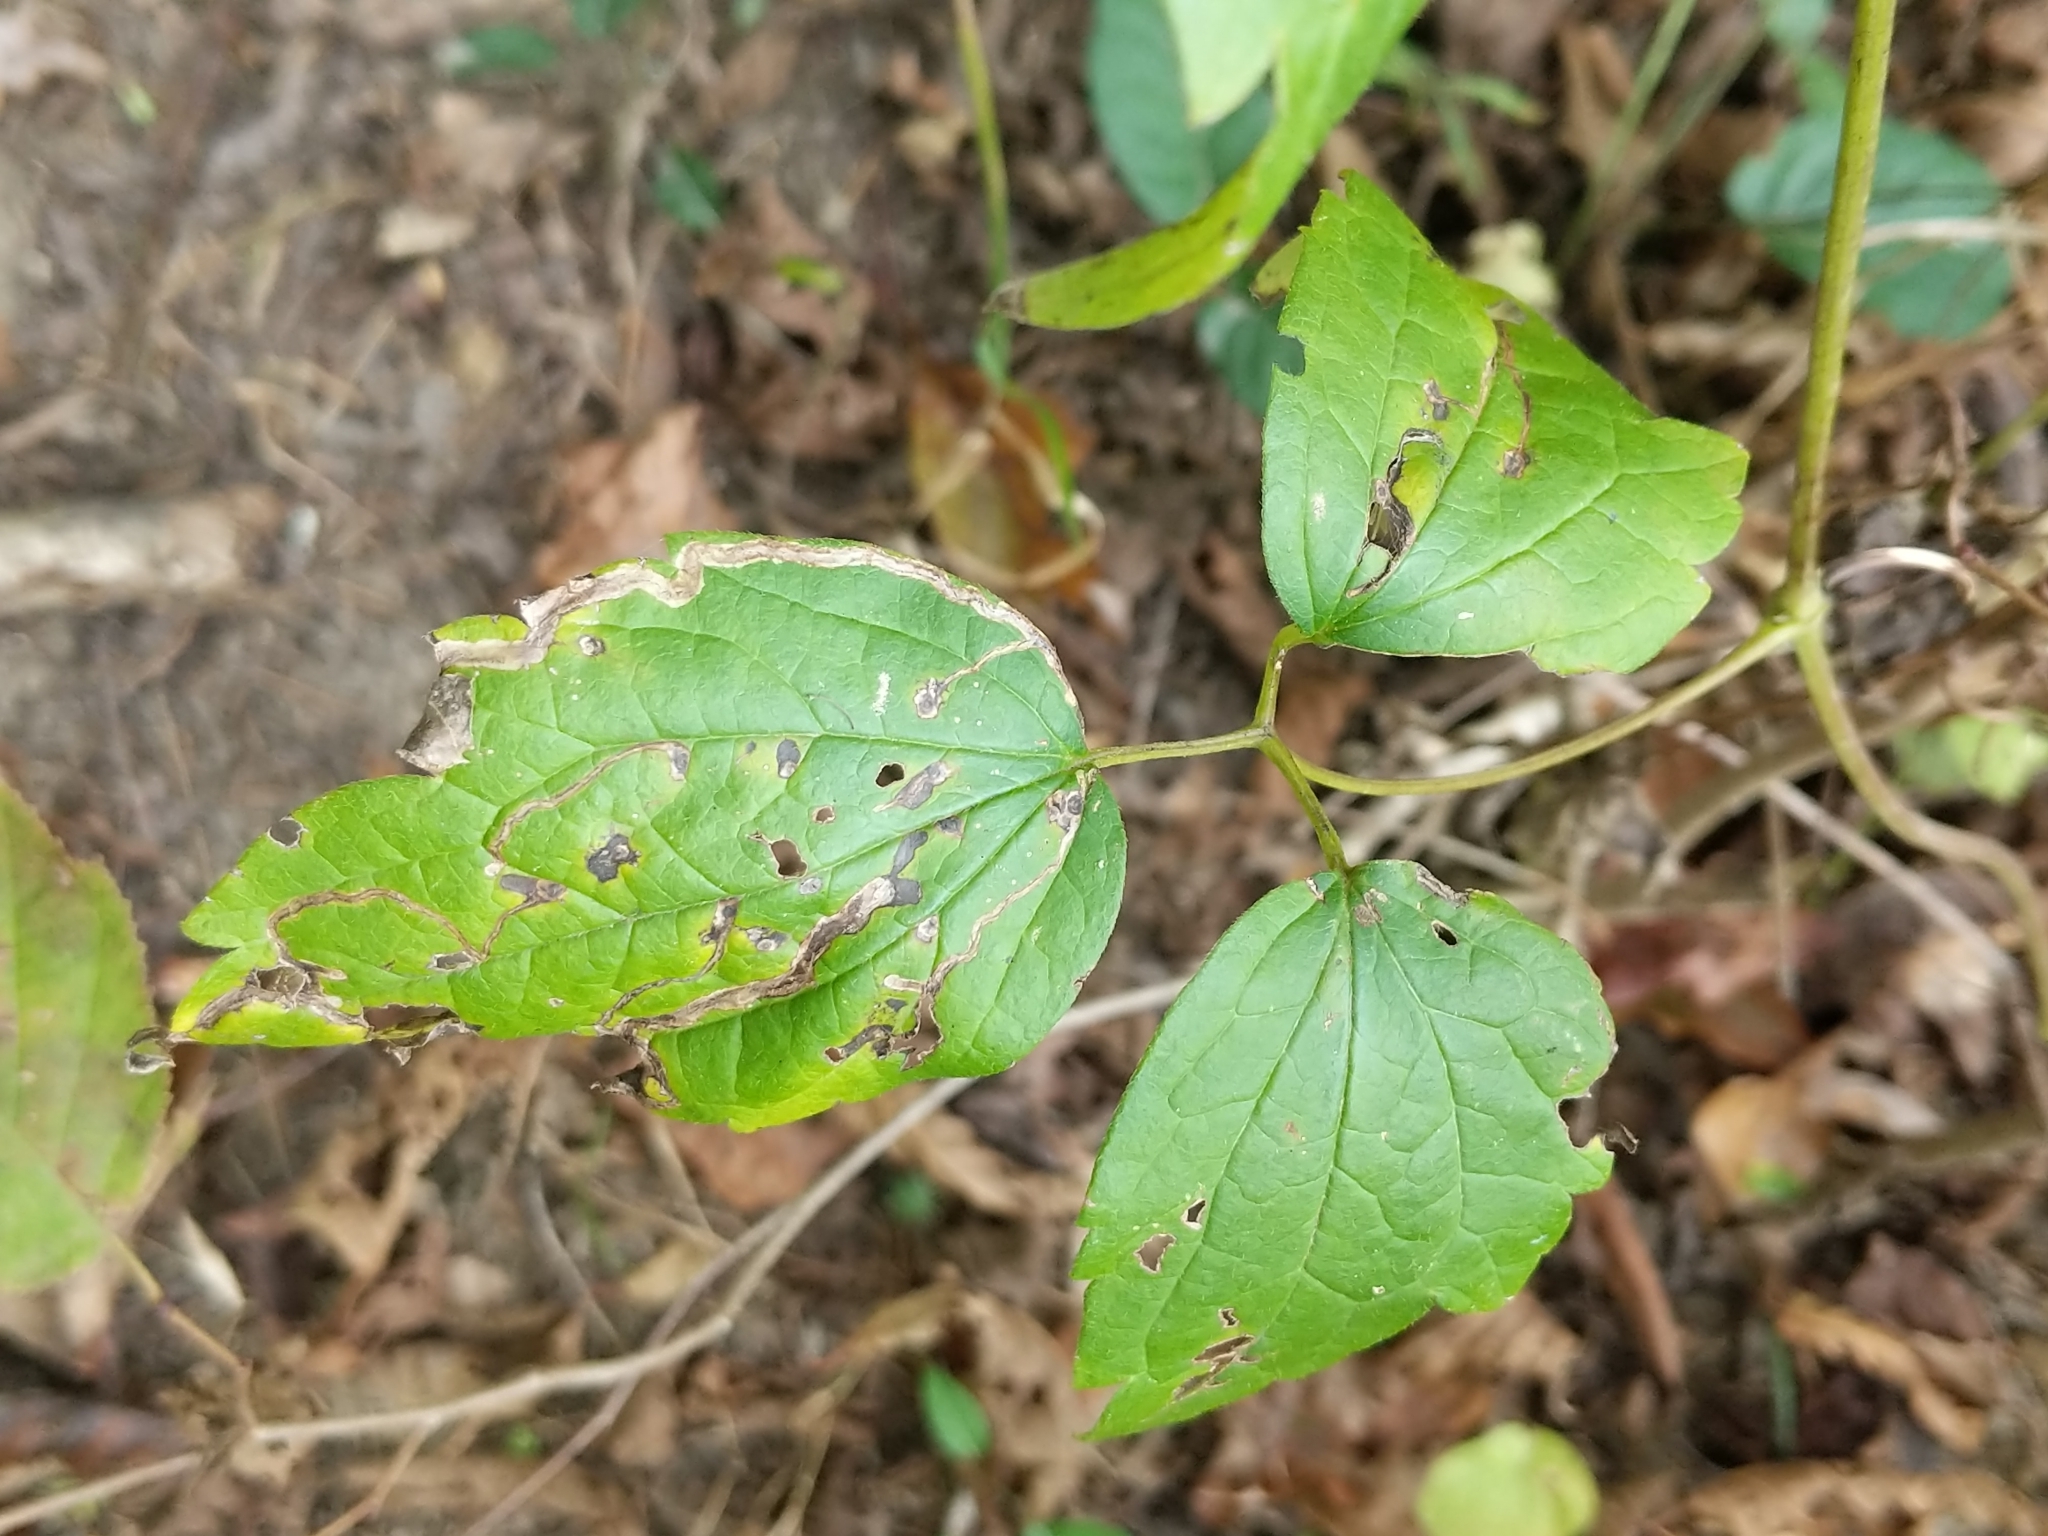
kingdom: Animalia
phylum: Arthropoda
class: Insecta
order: Diptera
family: Agromyzidae
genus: Phytomyza
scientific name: Phytomyza loewii
